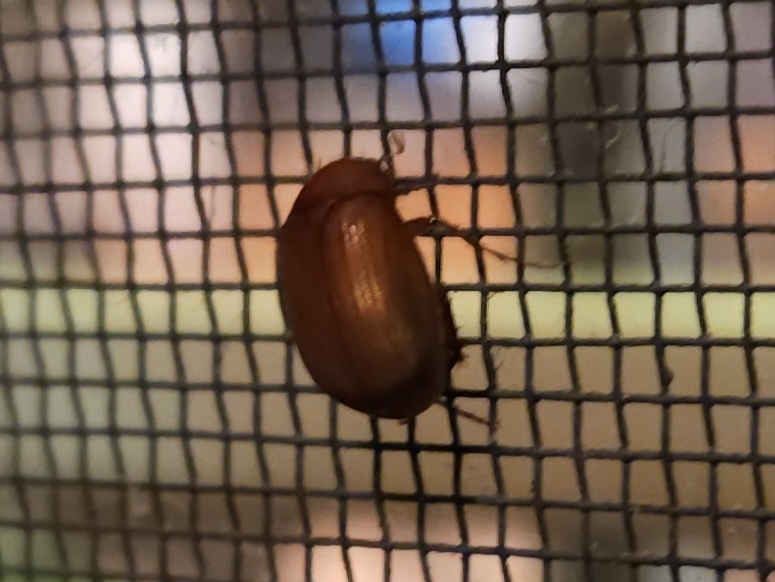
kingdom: Animalia
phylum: Arthropoda
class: Insecta
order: Coleoptera
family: Scarabaeidae
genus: Maladera
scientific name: Maladera formosae
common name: Asiatic garden beetle
